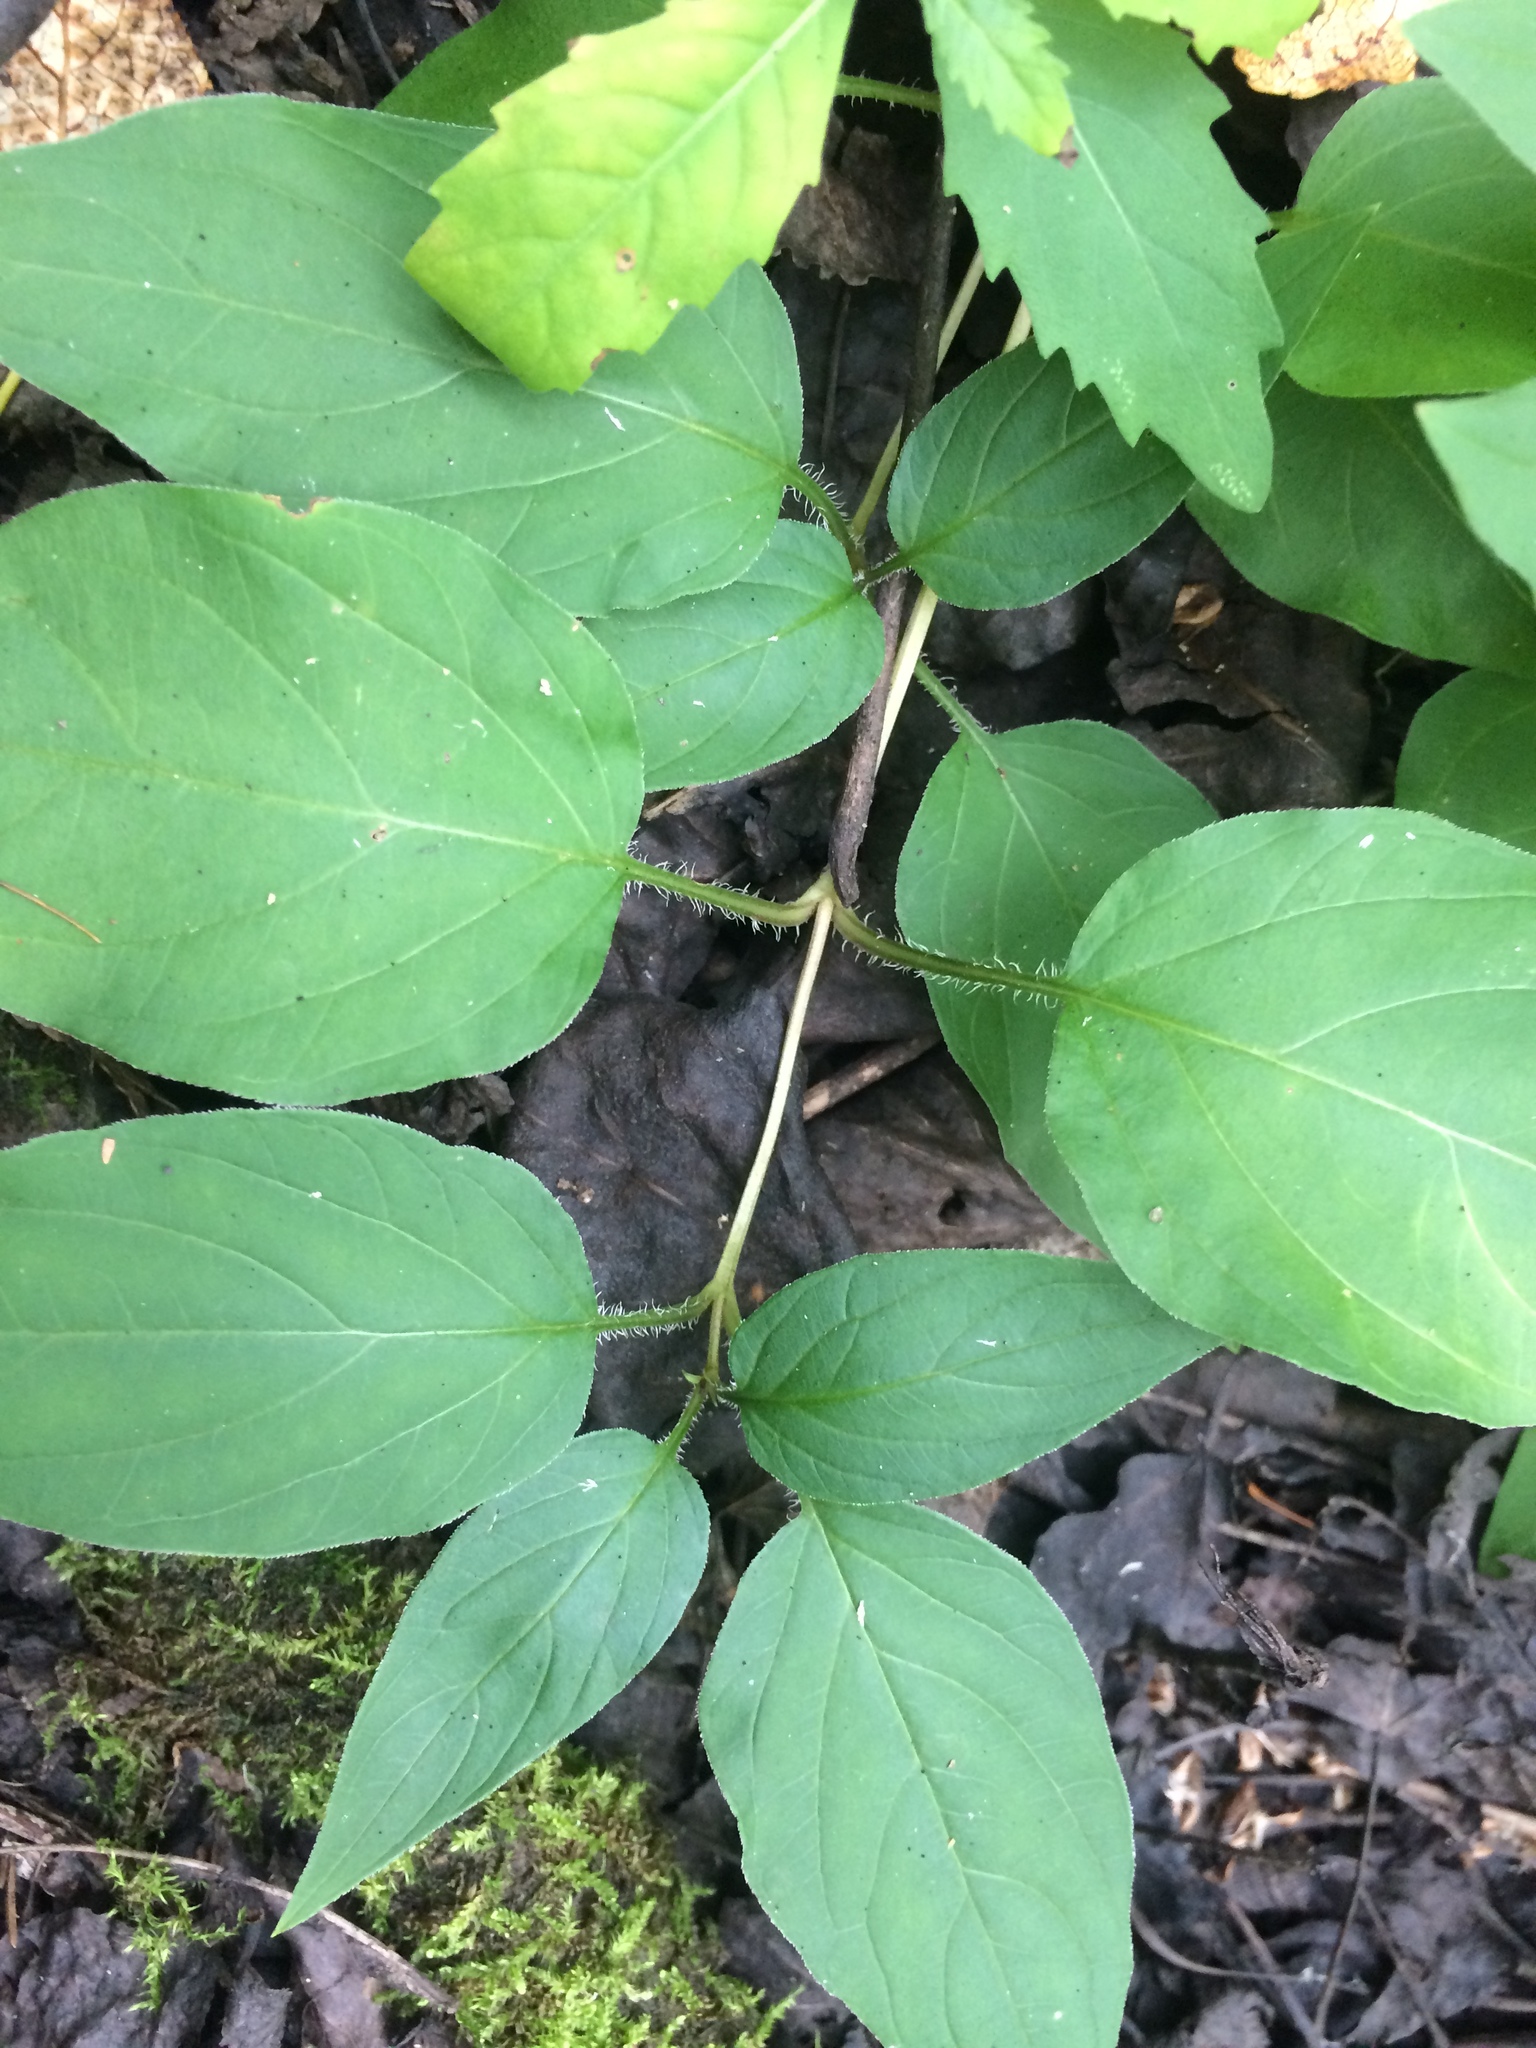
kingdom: Plantae
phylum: Tracheophyta
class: Magnoliopsida
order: Ericales
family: Primulaceae
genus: Lysimachia
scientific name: Lysimachia ciliata
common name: Fringed loosestrife
